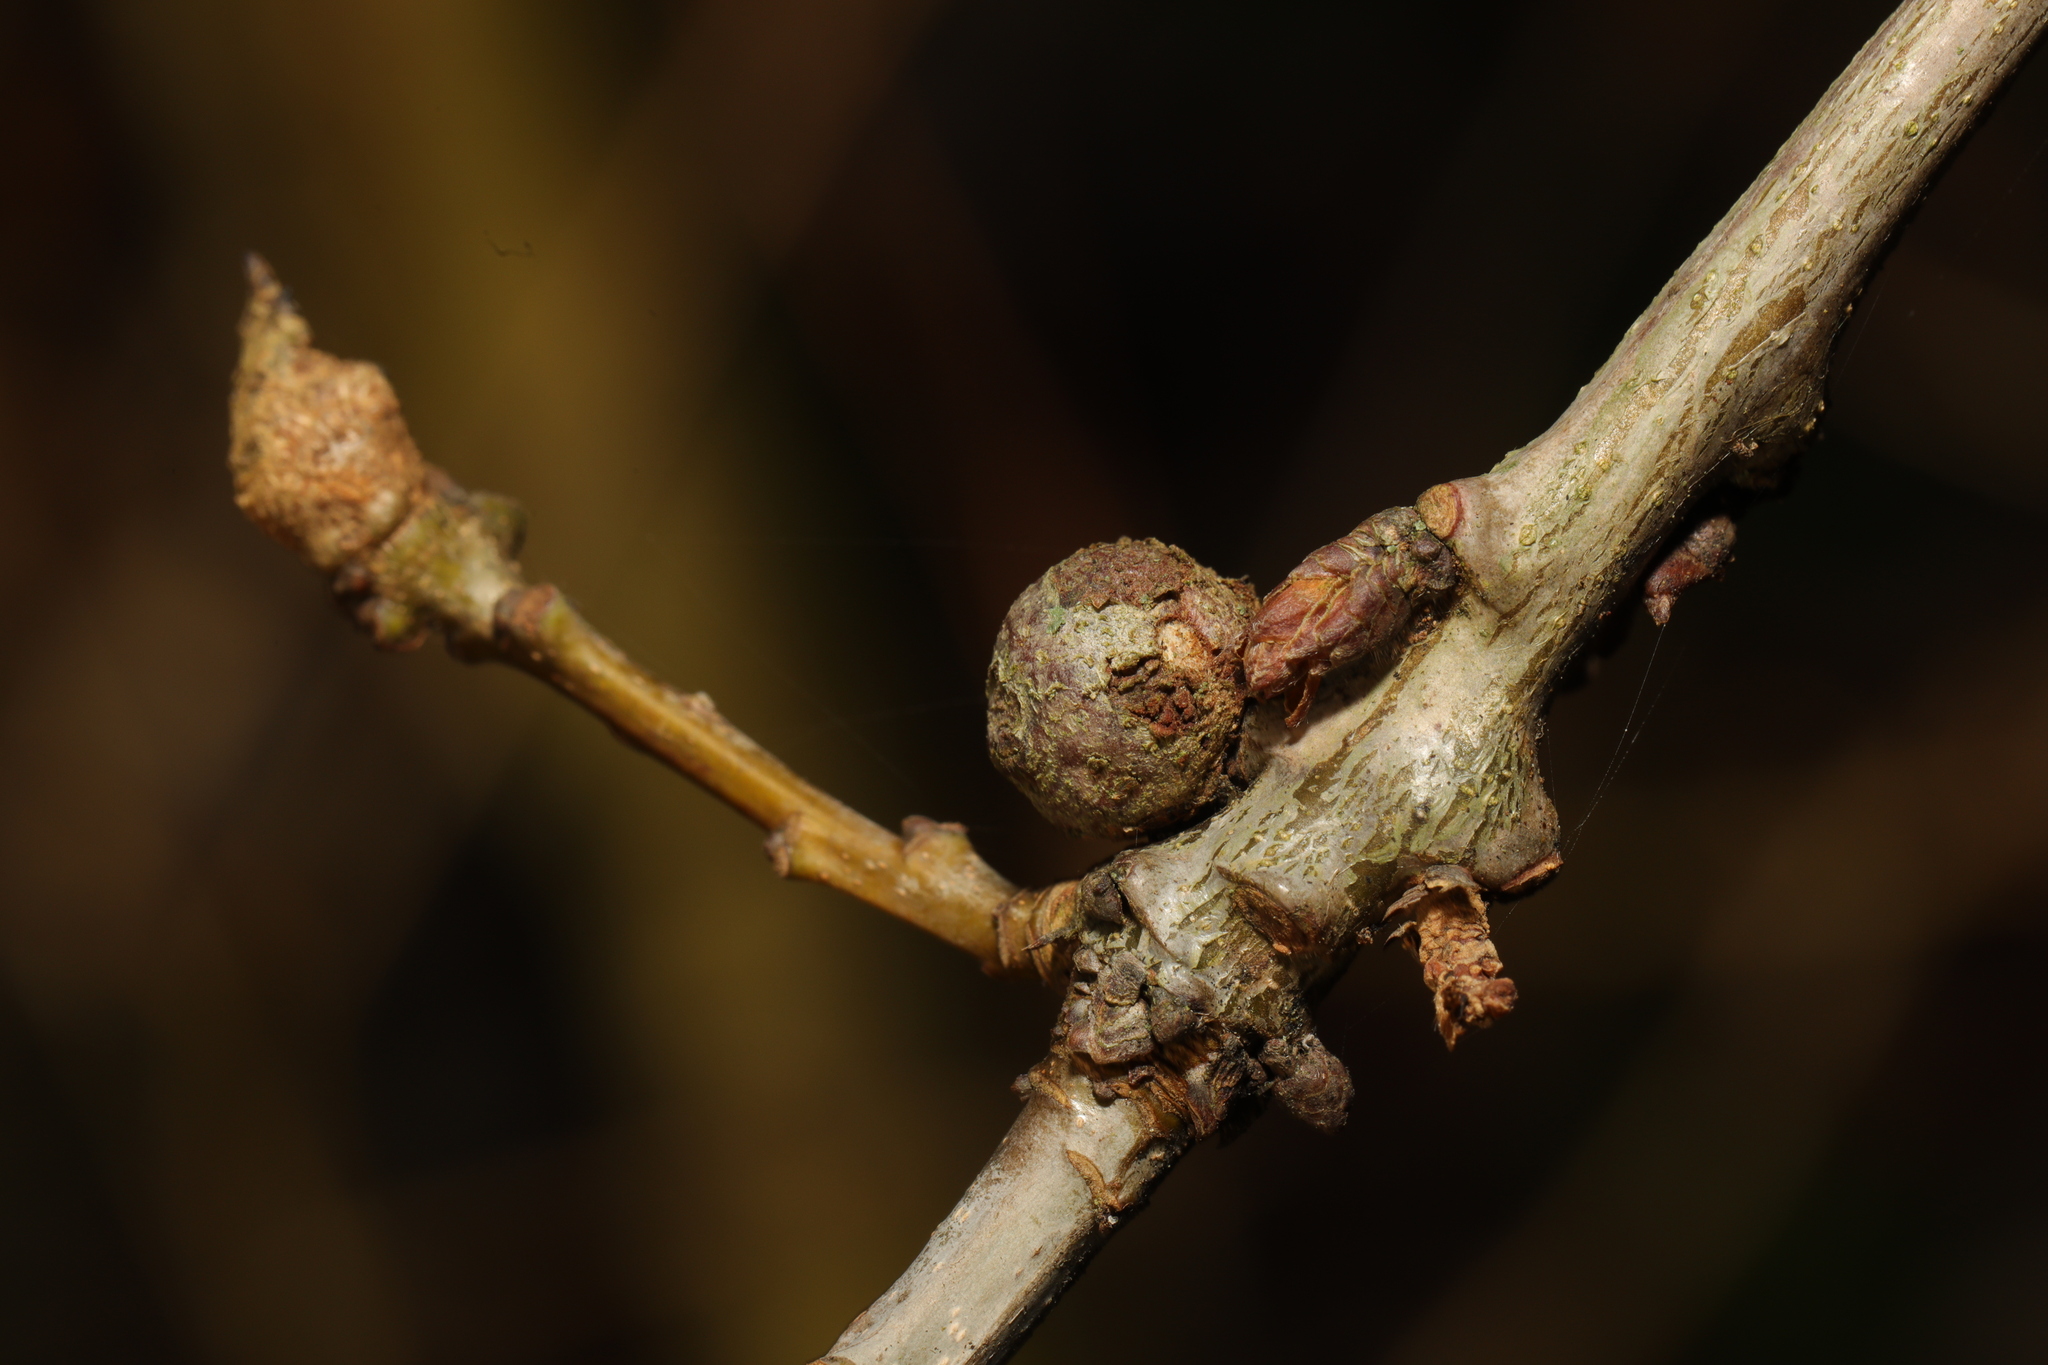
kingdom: Animalia
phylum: Arthropoda
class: Insecta
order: Hymenoptera
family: Cynipidae
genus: Andricus
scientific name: Andricus lignicolus
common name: Cola-nut gall
